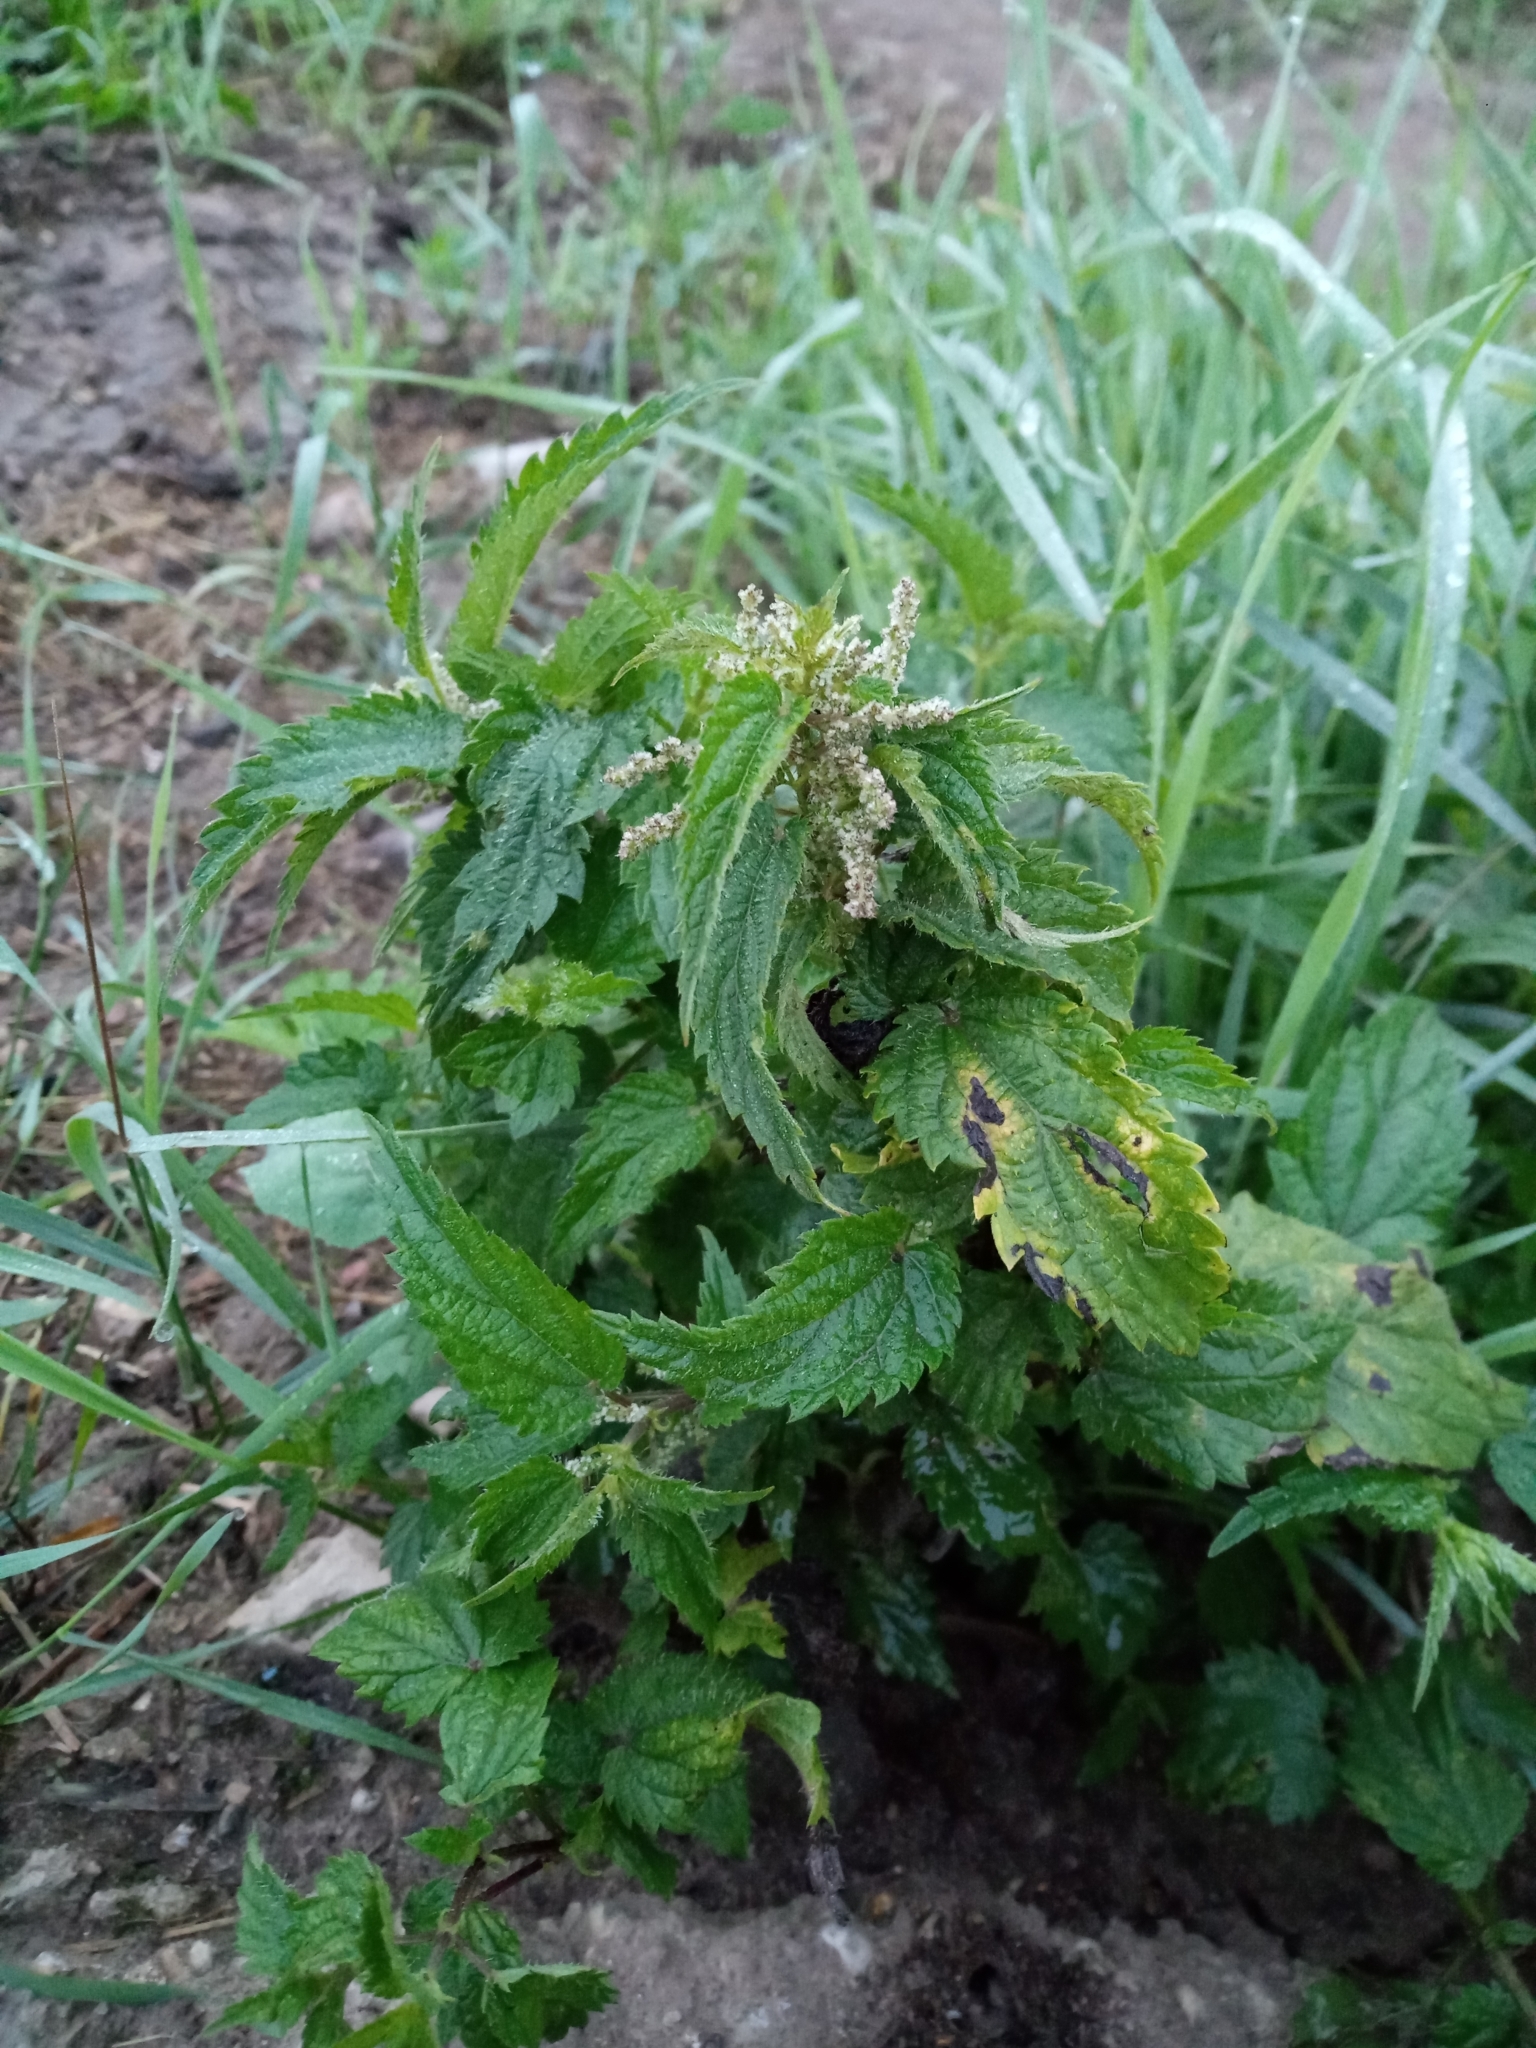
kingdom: Plantae
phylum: Tracheophyta
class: Magnoliopsida
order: Rosales
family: Urticaceae
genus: Urtica
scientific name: Urtica dioica
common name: Common nettle
